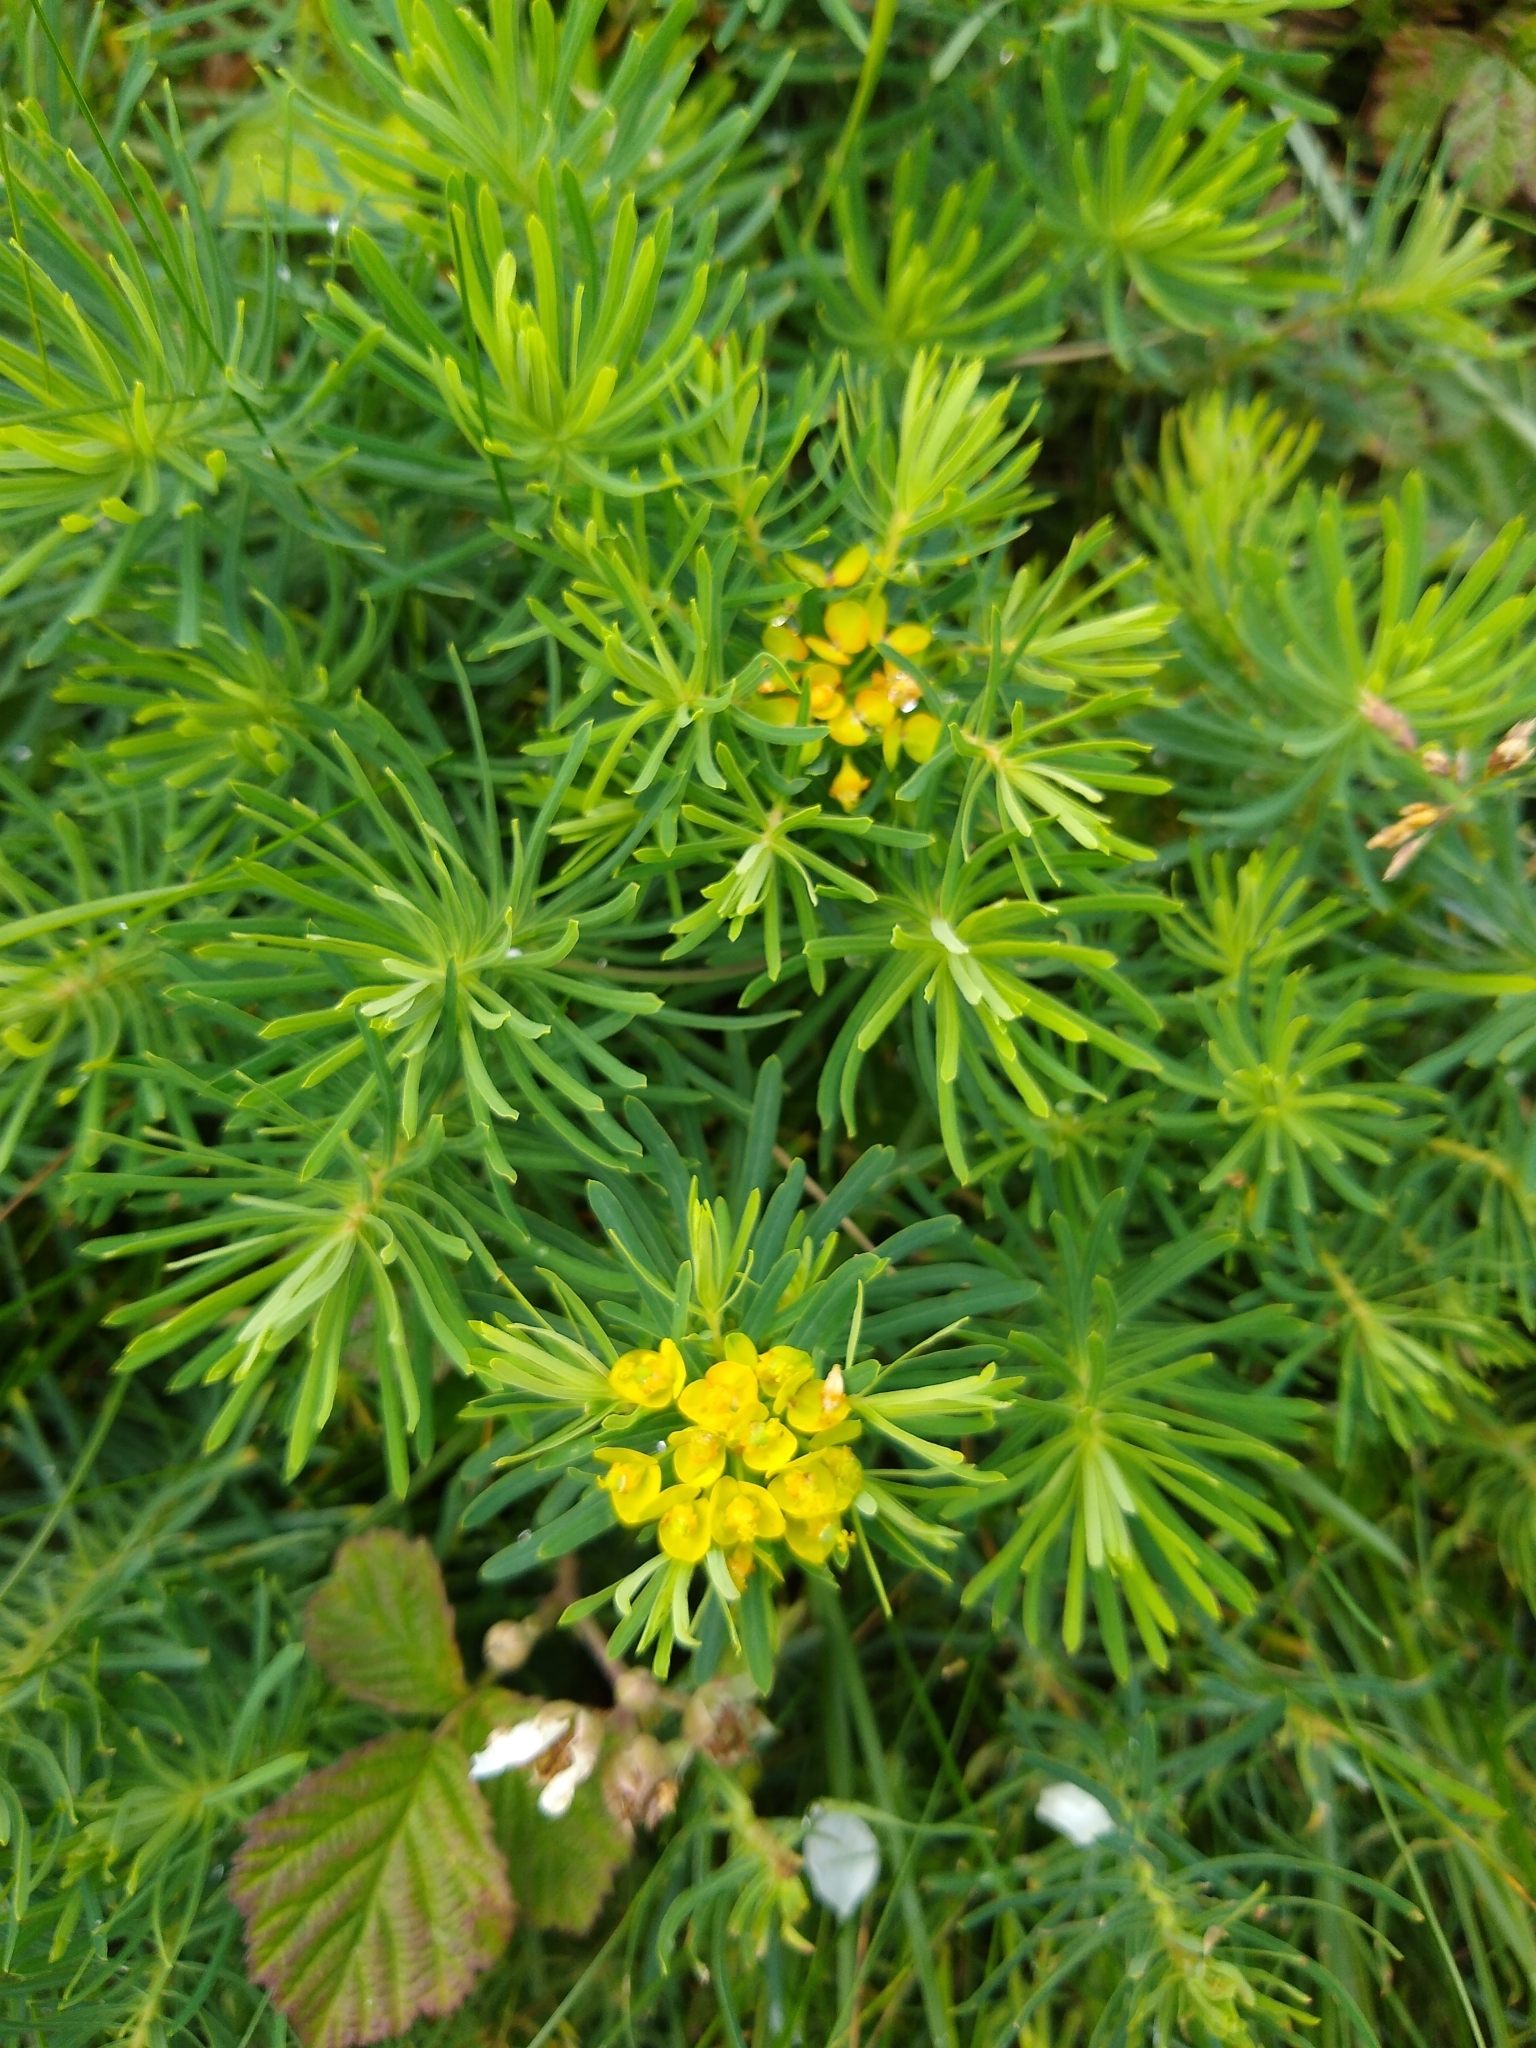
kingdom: Plantae
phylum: Tracheophyta
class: Magnoliopsida
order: Malpighiales
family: Euphorbiaceae
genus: Euphorbia
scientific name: Euphorbia cyparissias
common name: Cypress spurge
